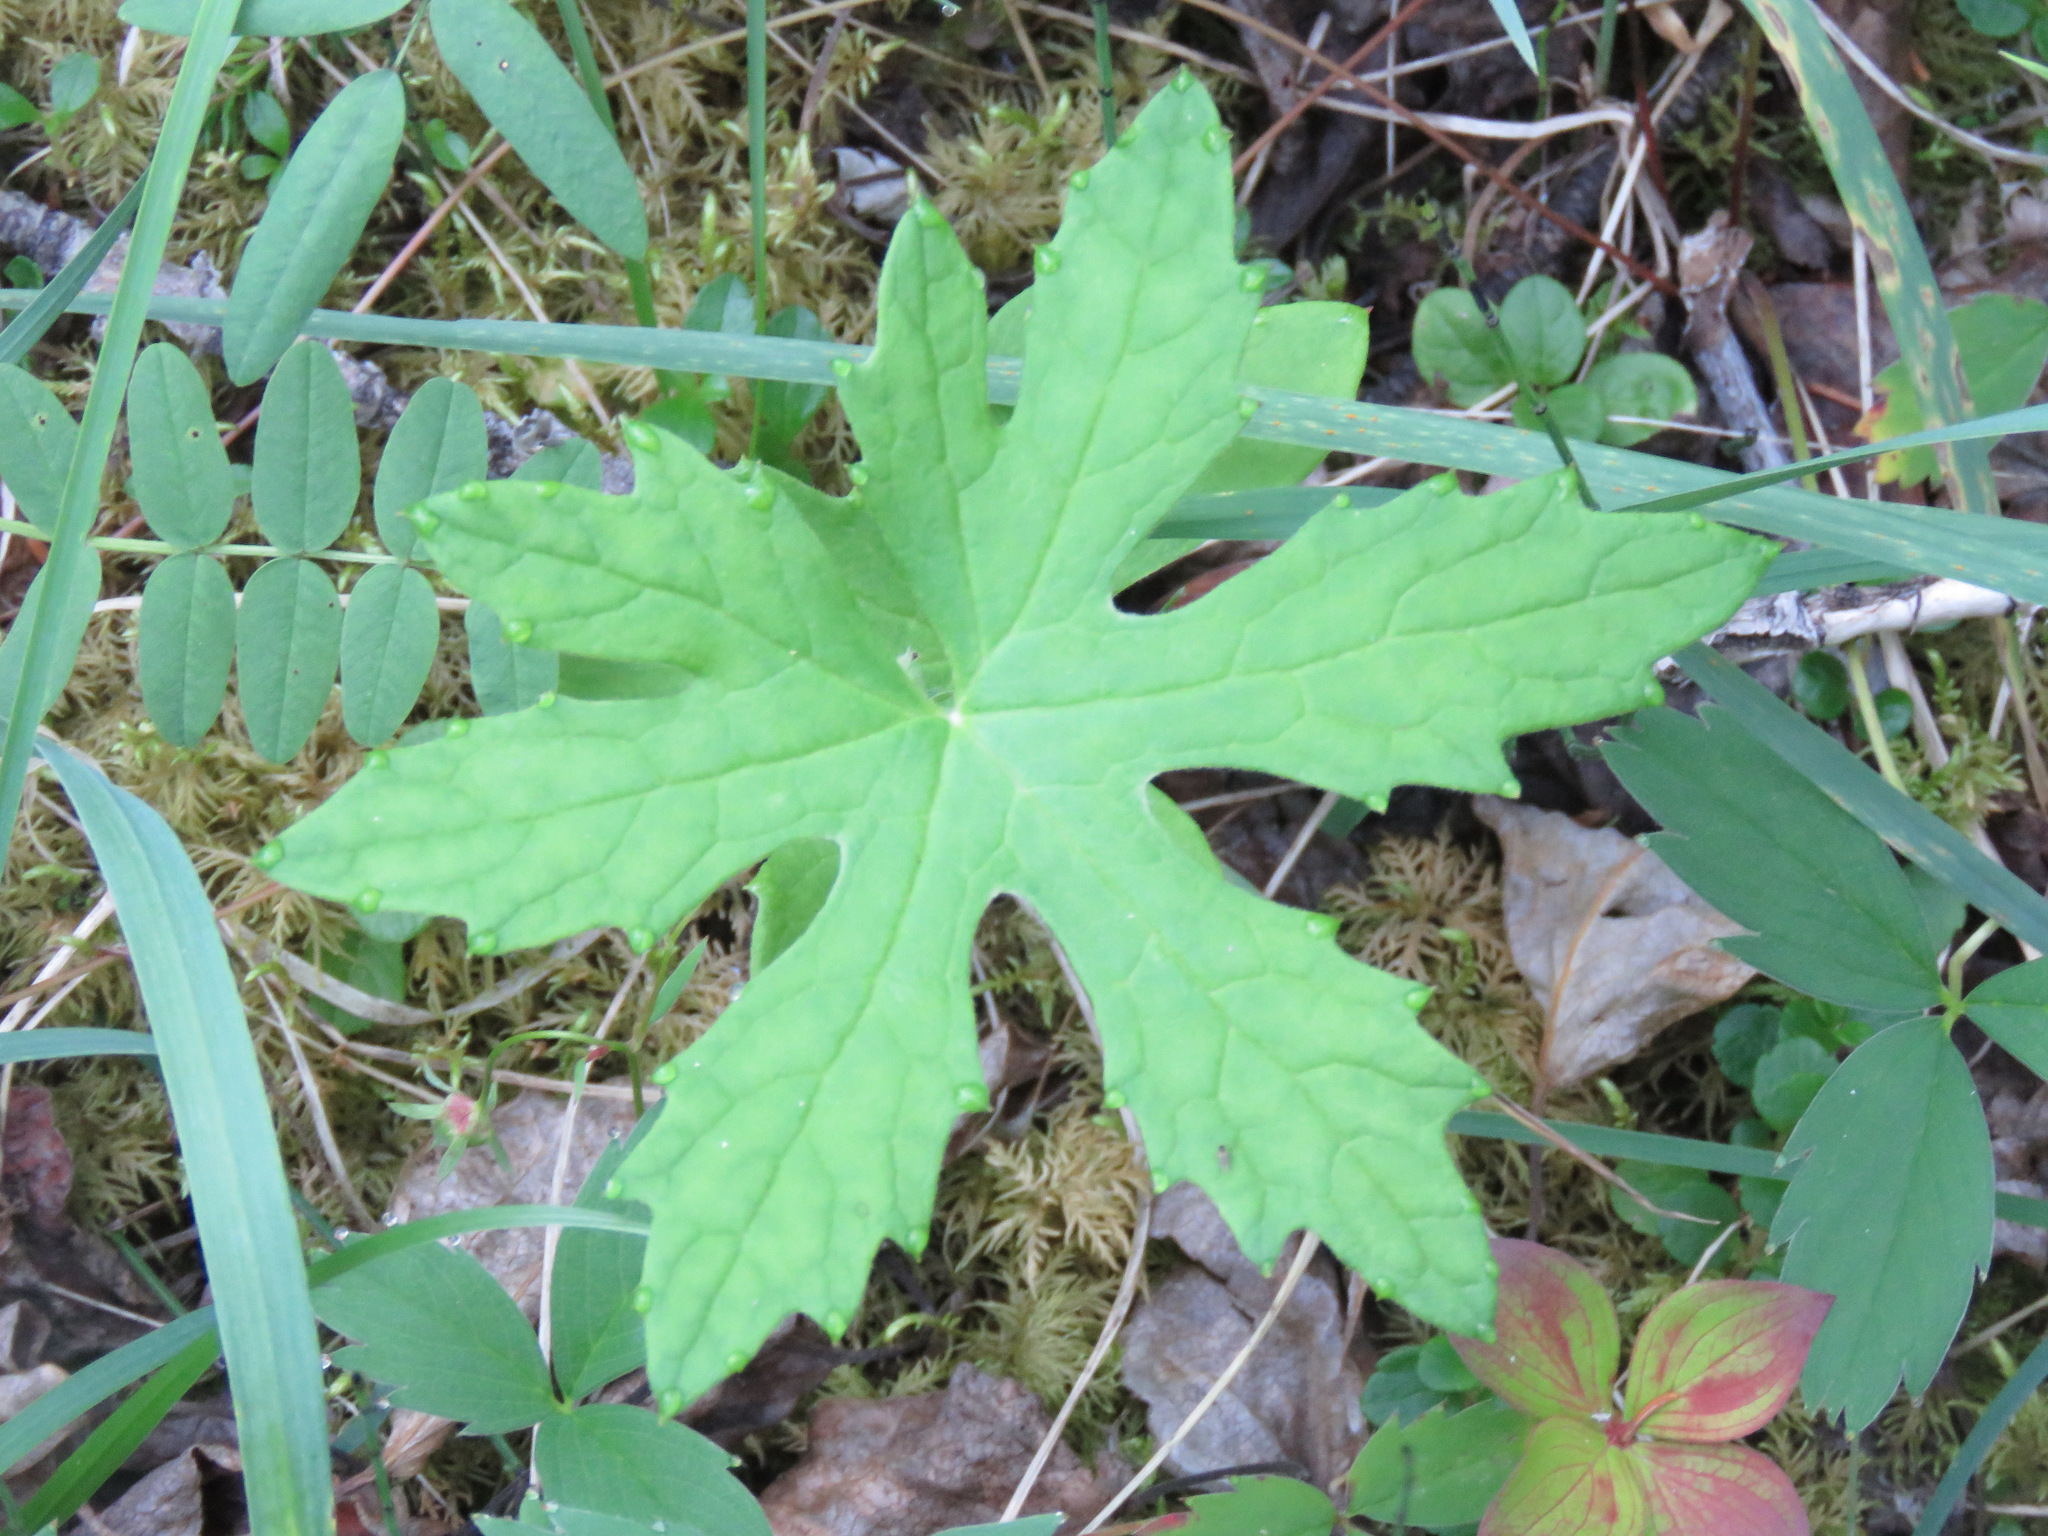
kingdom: Plantae
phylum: Tracheophyta
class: Magnoliopsida
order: Asterales
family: Asteraceae
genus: Petasites
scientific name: Petasites frigidus
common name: Arctic butterbur
